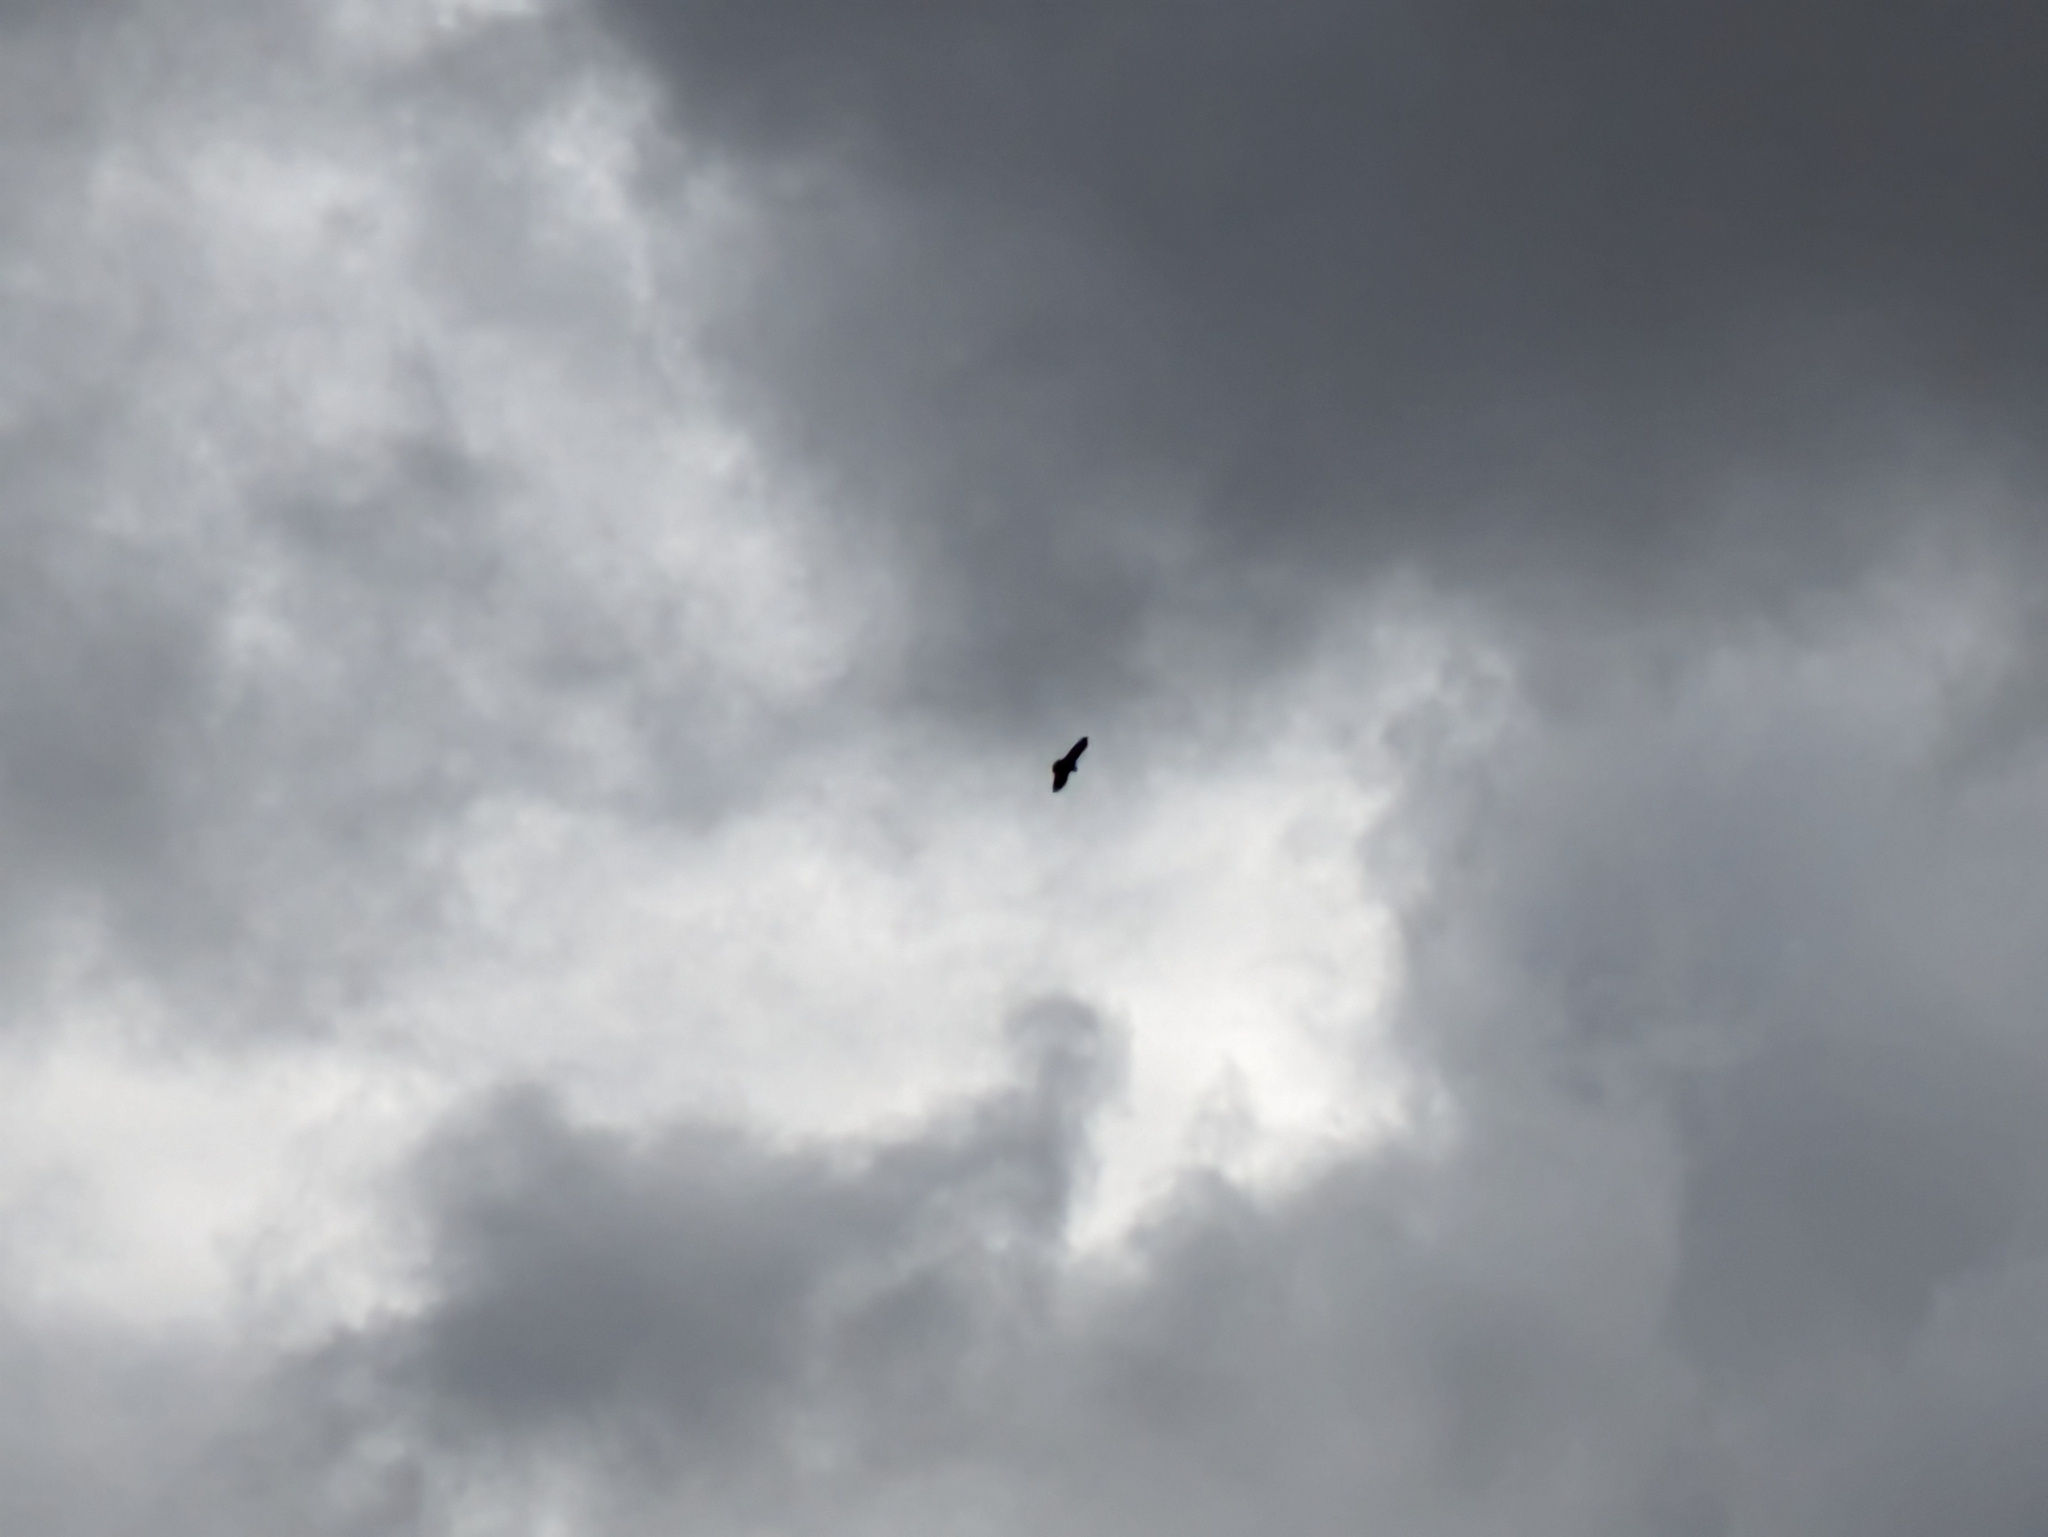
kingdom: Animalia
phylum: Chordata
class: Aves
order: Accipitriformes
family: Accipitridae
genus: Buteo
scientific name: Buteo buteo
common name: Common buzzard
